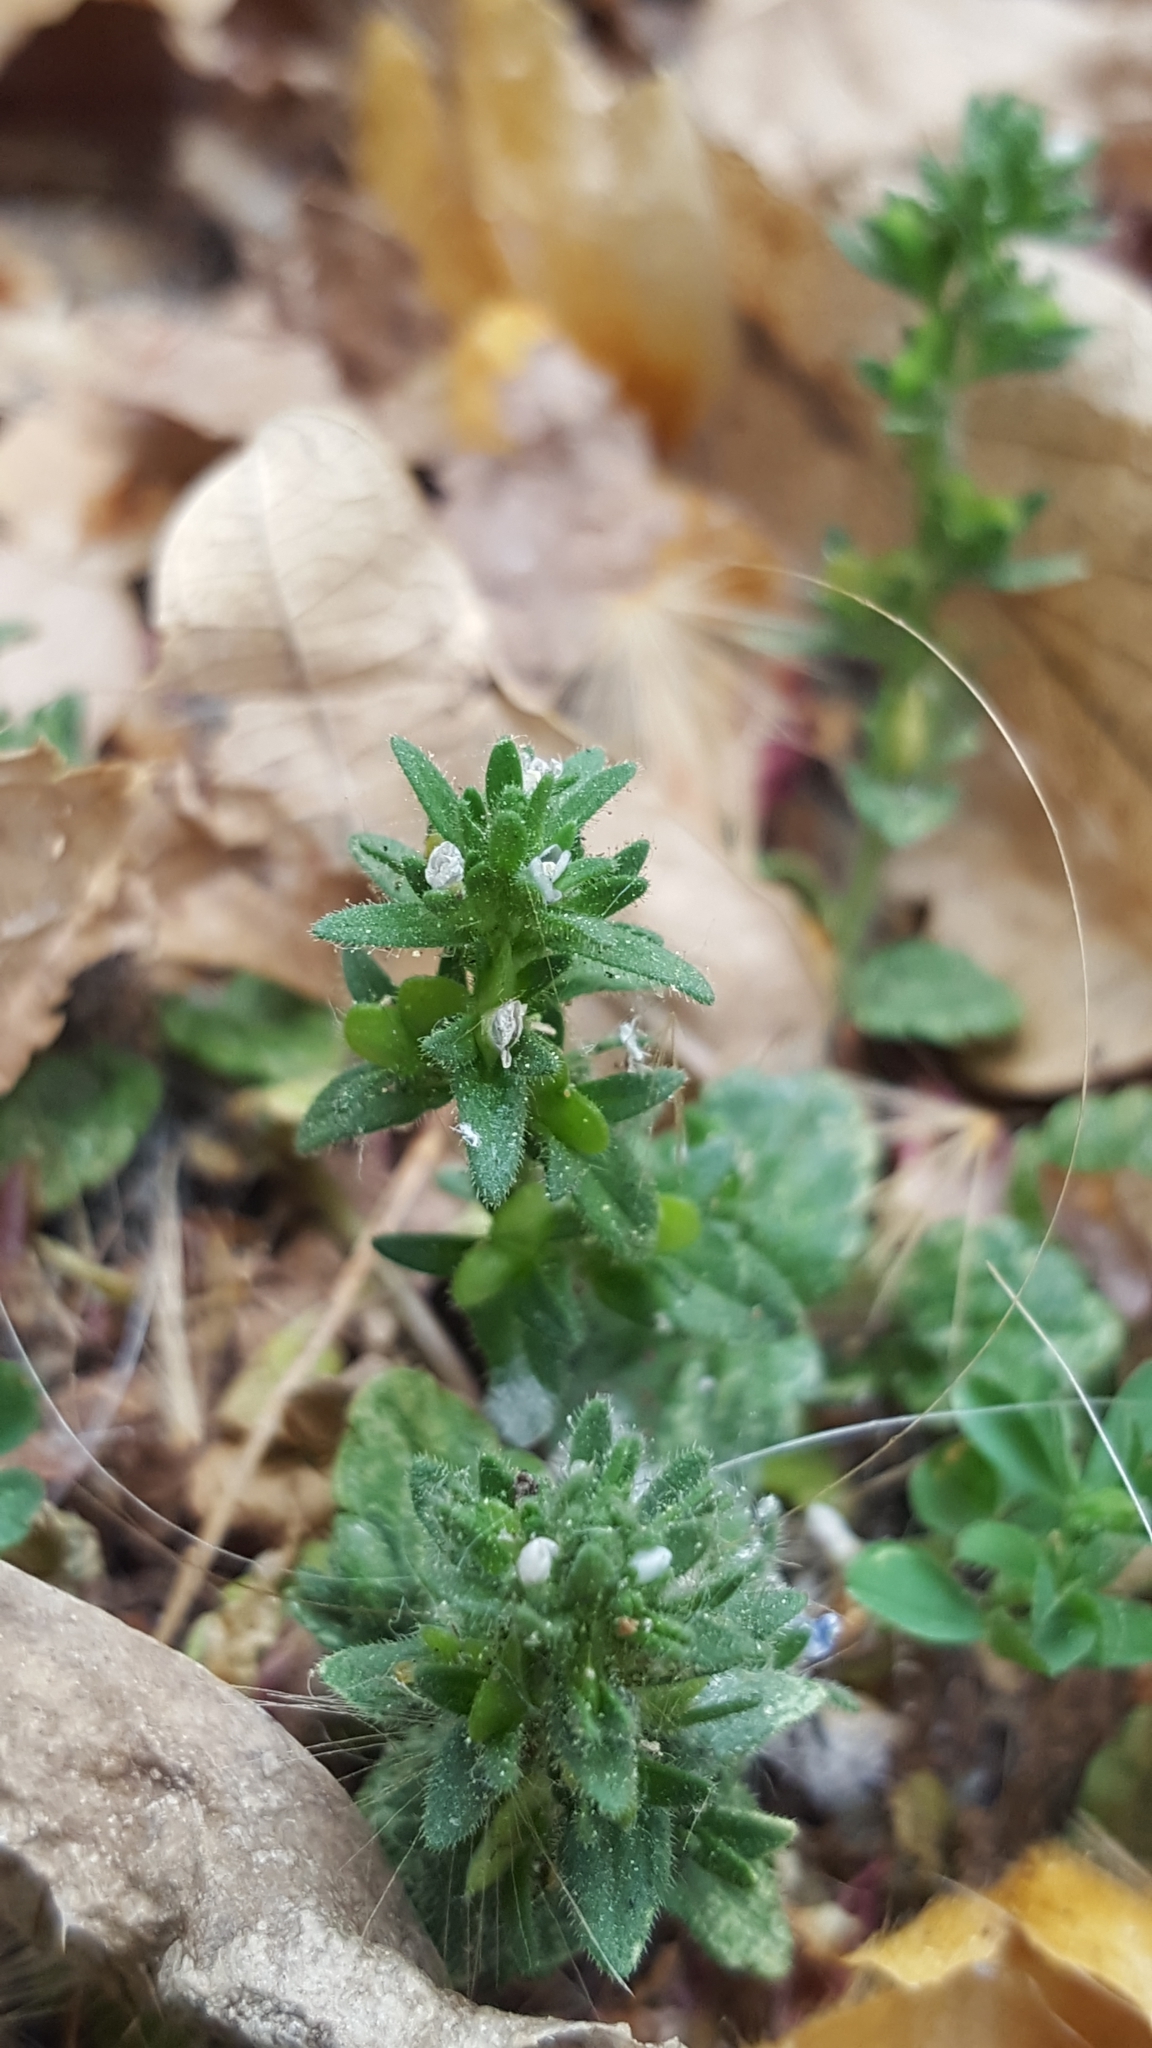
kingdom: Plantae
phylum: Tracheophyta
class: Magnoliopsida
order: Lamiales
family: Plantaginaceae
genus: Veronica
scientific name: Veronica arvensis
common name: Corn speedwell
